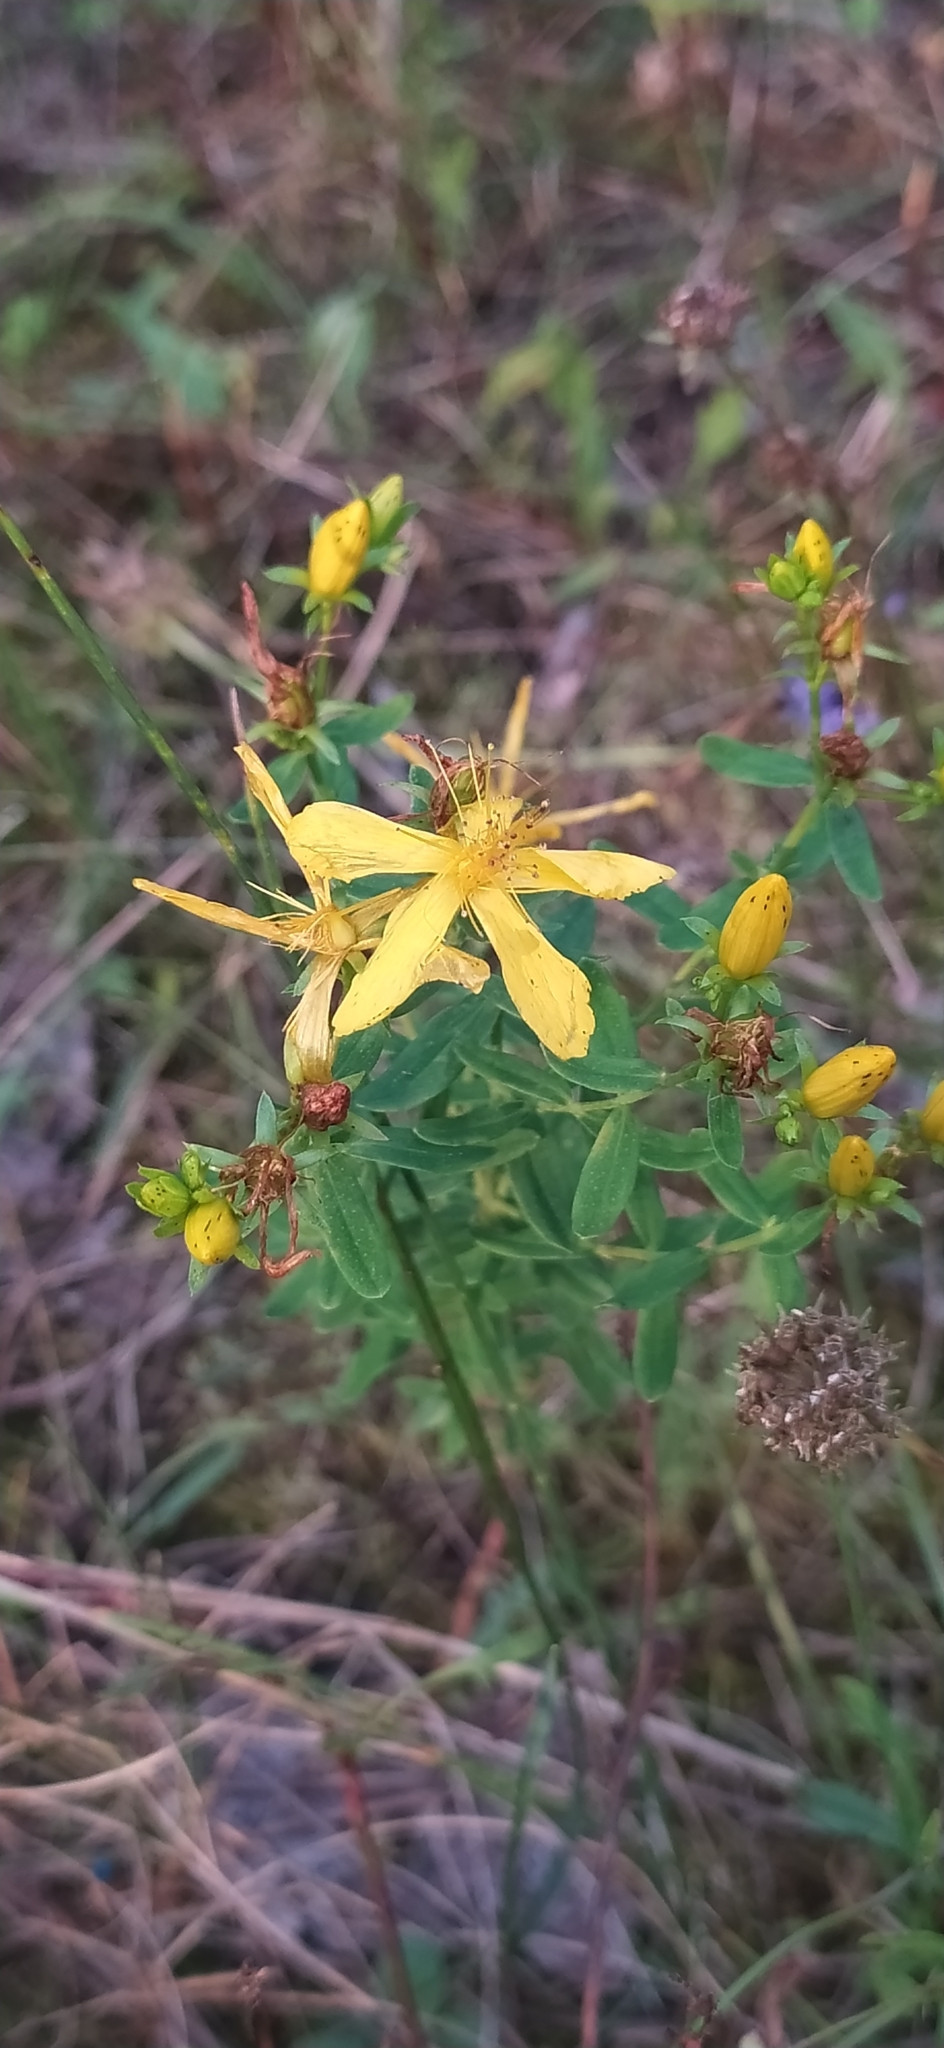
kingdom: Plantae
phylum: Tracheophyta
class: Magnoliopsida
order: Malpighiales
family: Hypericaceae
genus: Hypericum
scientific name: Hypericum perforatum
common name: Common st. johnswort
